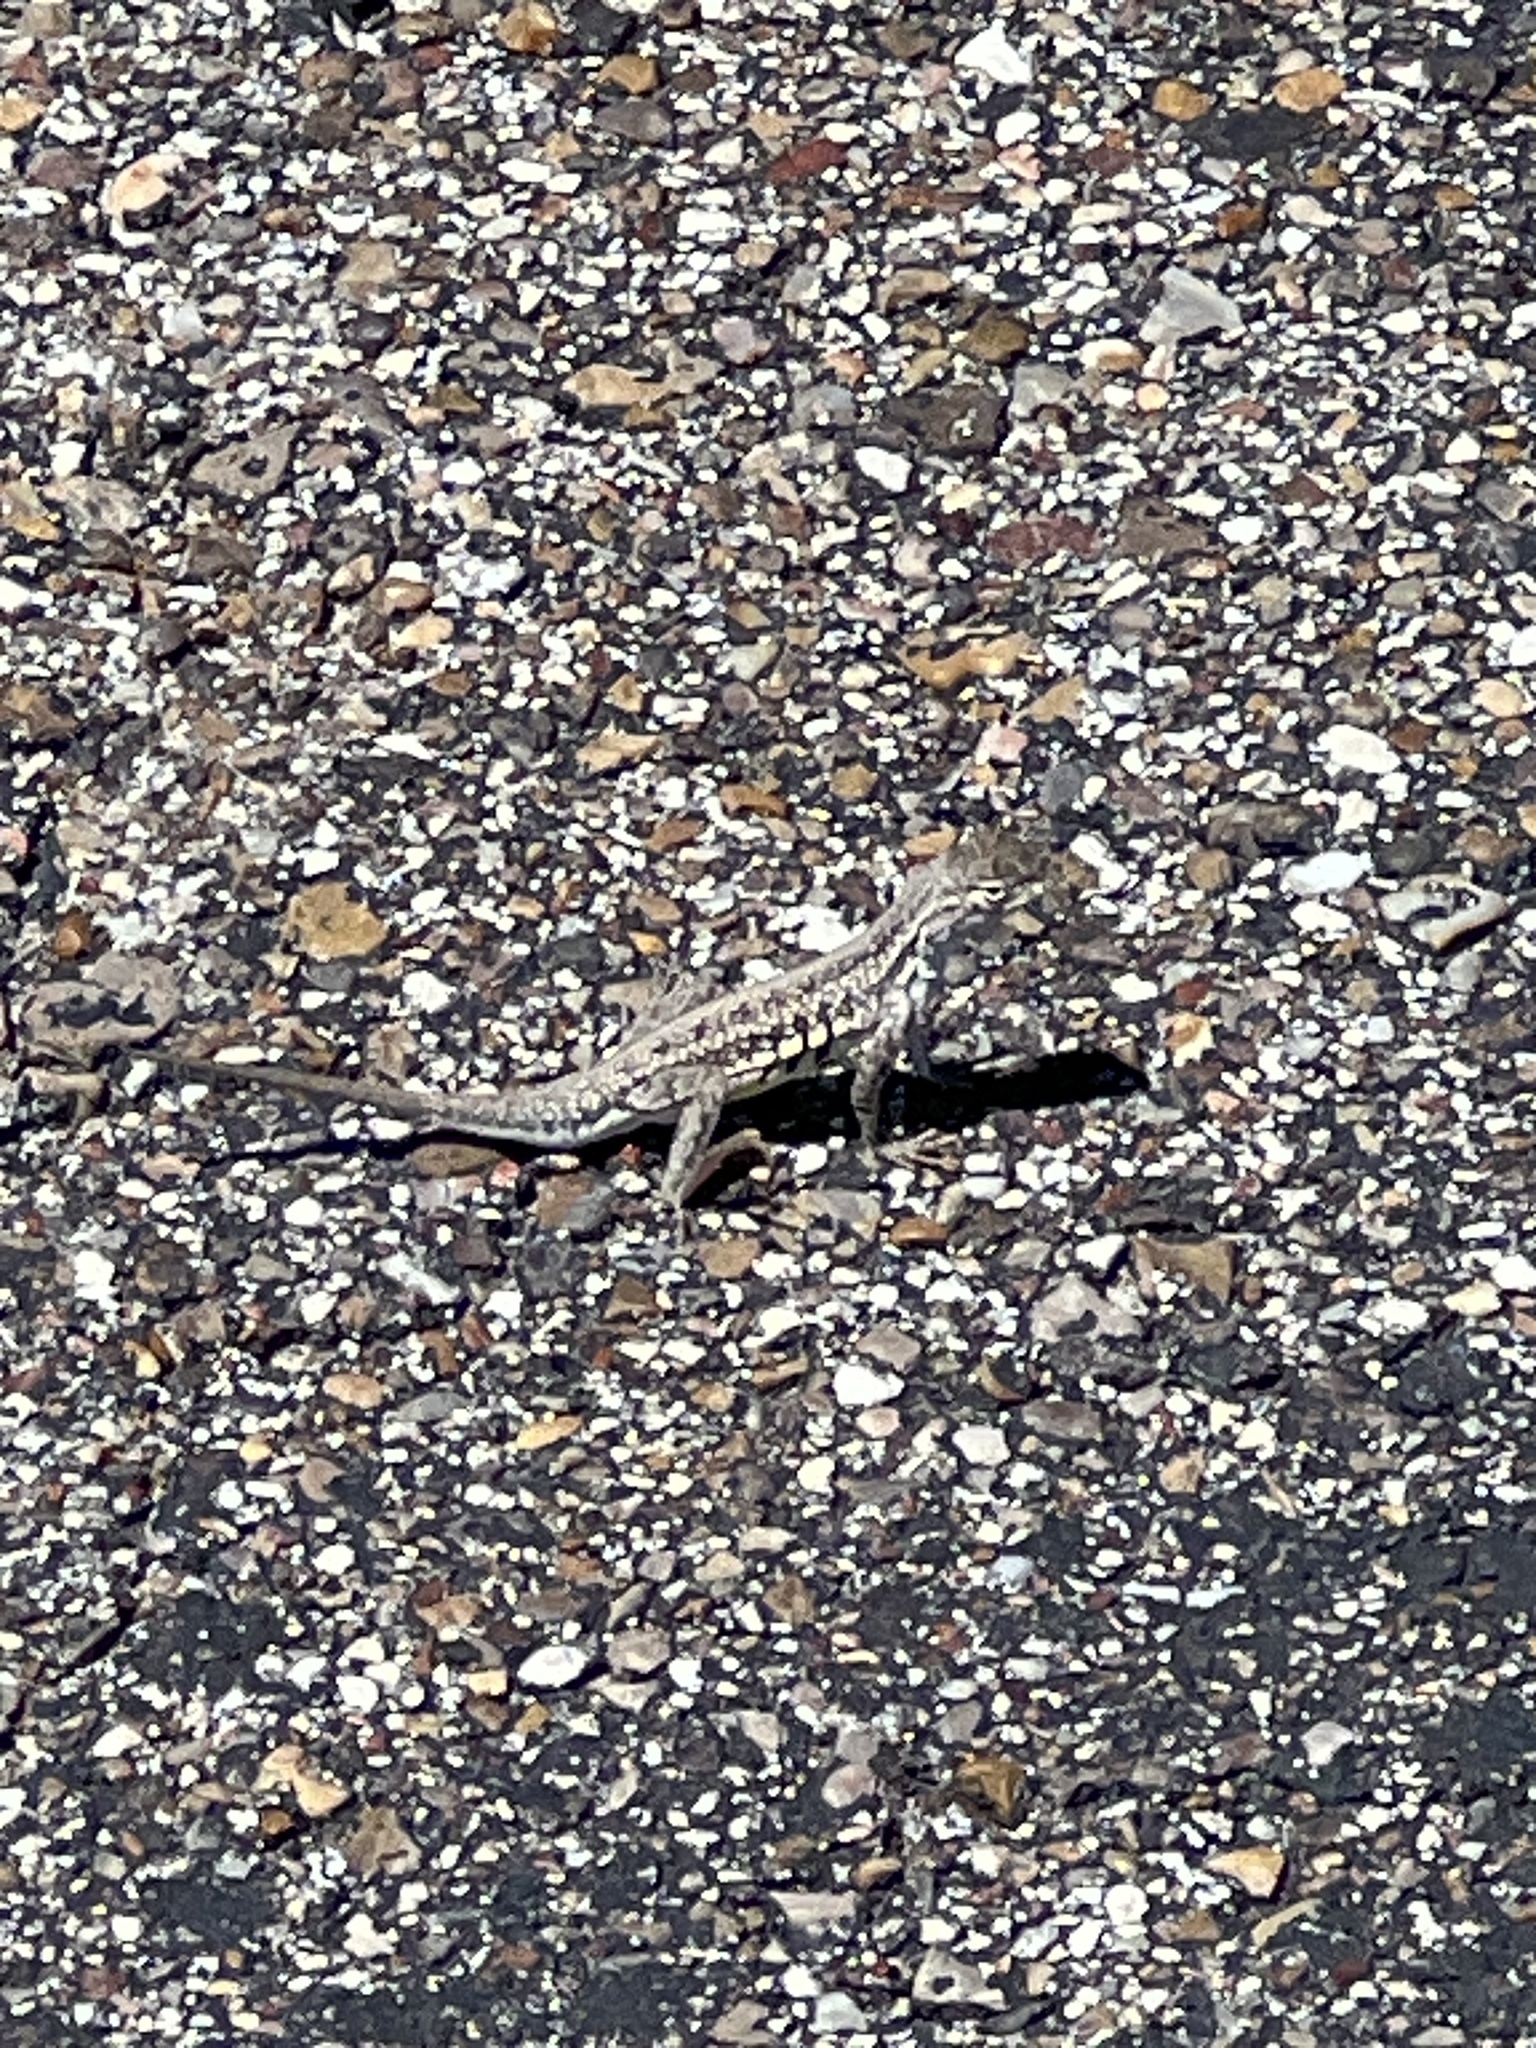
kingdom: Animalia
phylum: Chordata
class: Squamata
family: Phrynosomatidae
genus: Holbrookia
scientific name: Holbrookia propinqua
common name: Keeled earless lizard
